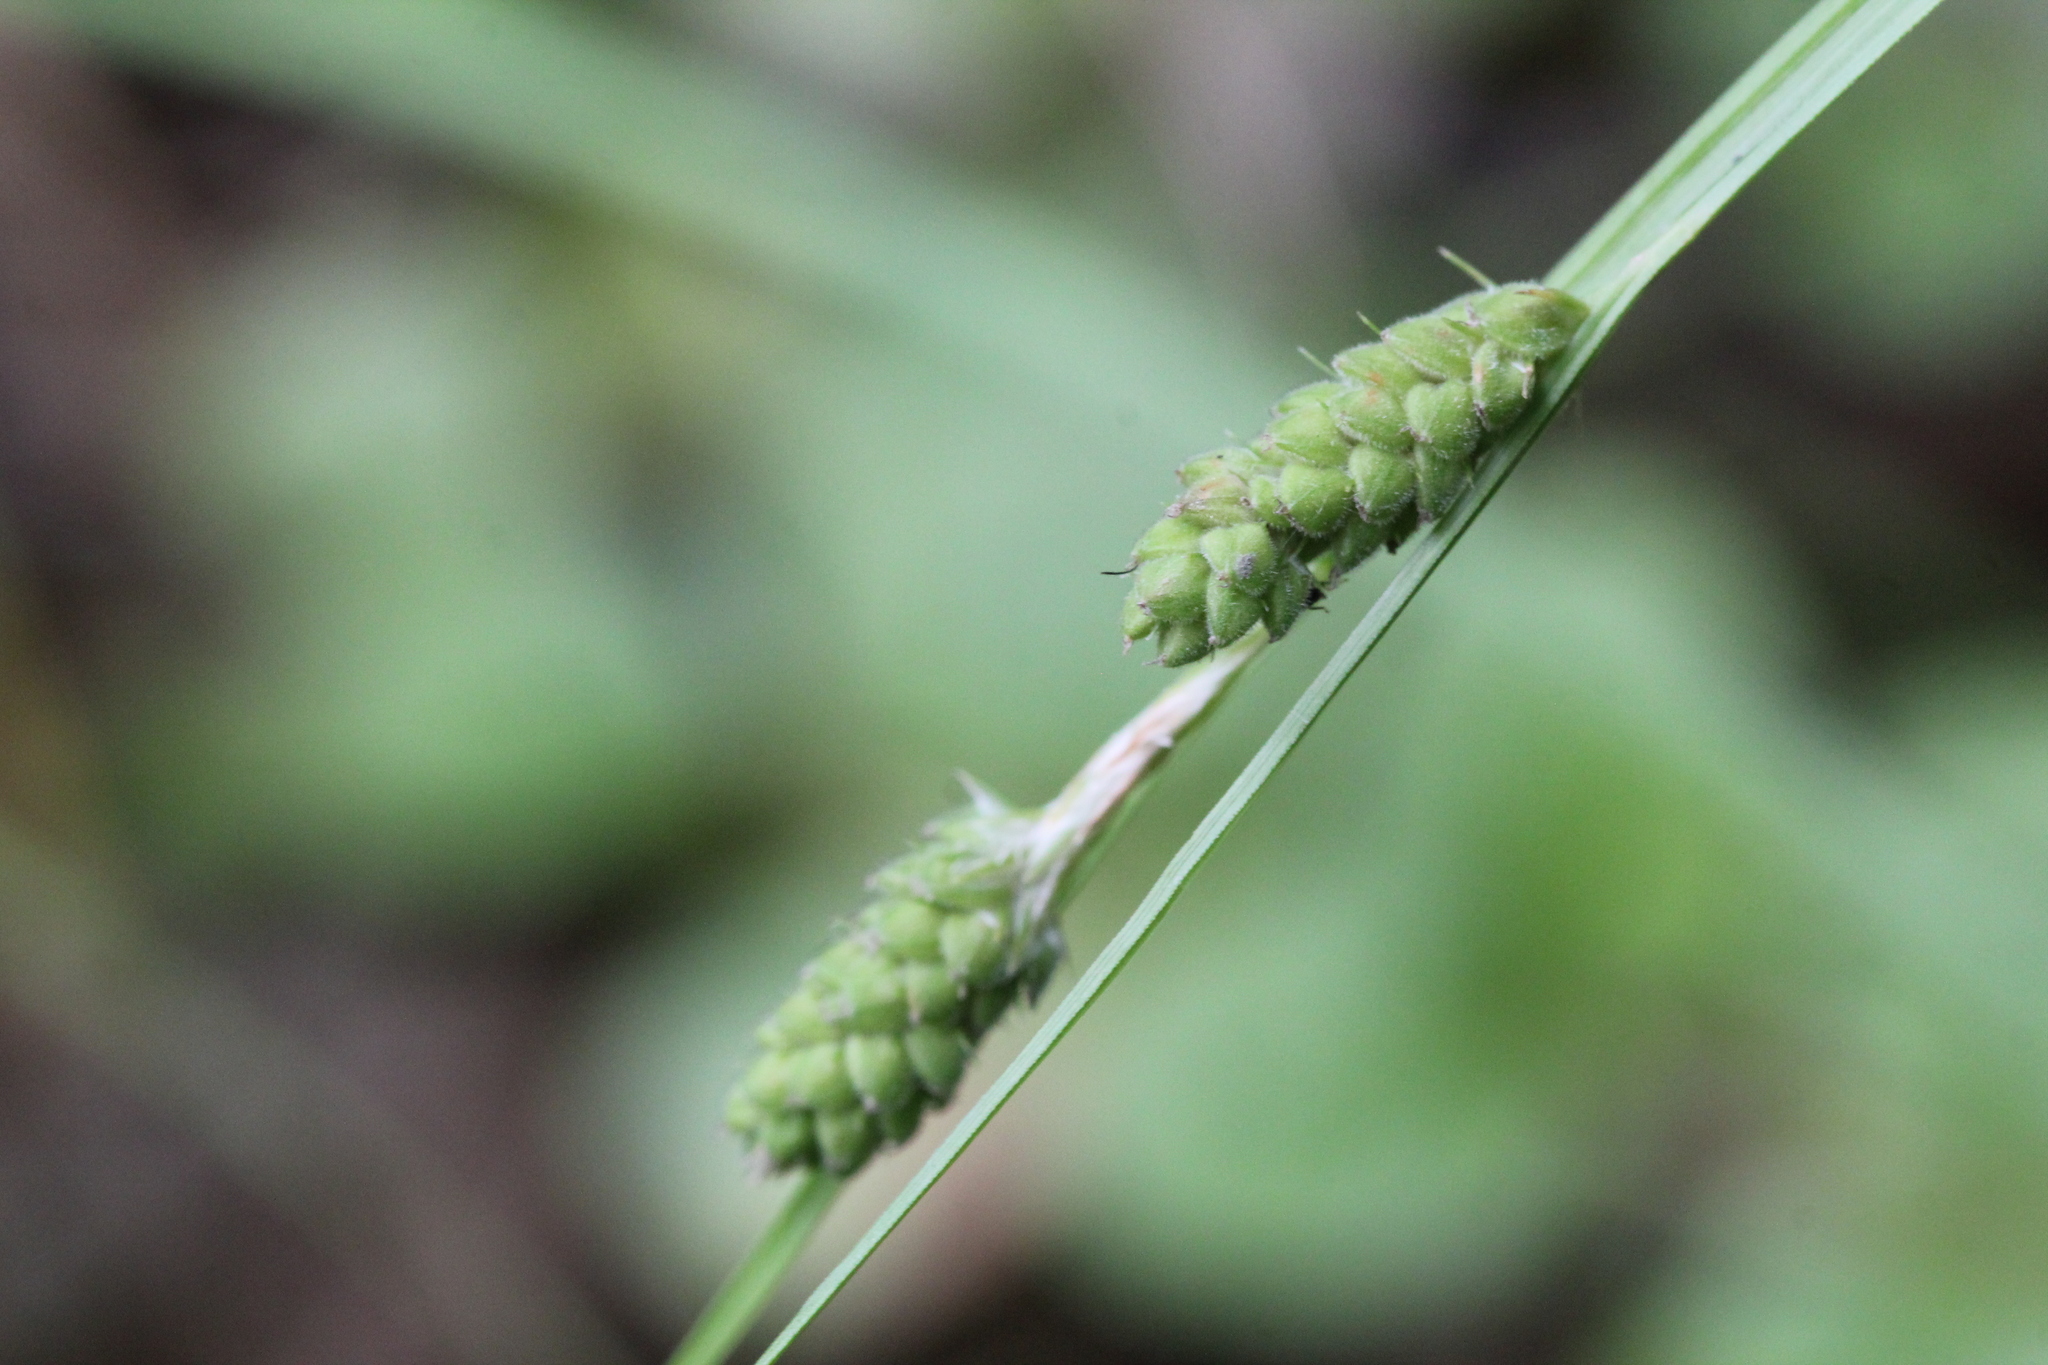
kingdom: Plantae
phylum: Tracheophyta
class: Liliopsida
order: Poales
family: Cyperaceae
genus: Carex
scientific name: Carex swanii
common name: Downy green sedge
